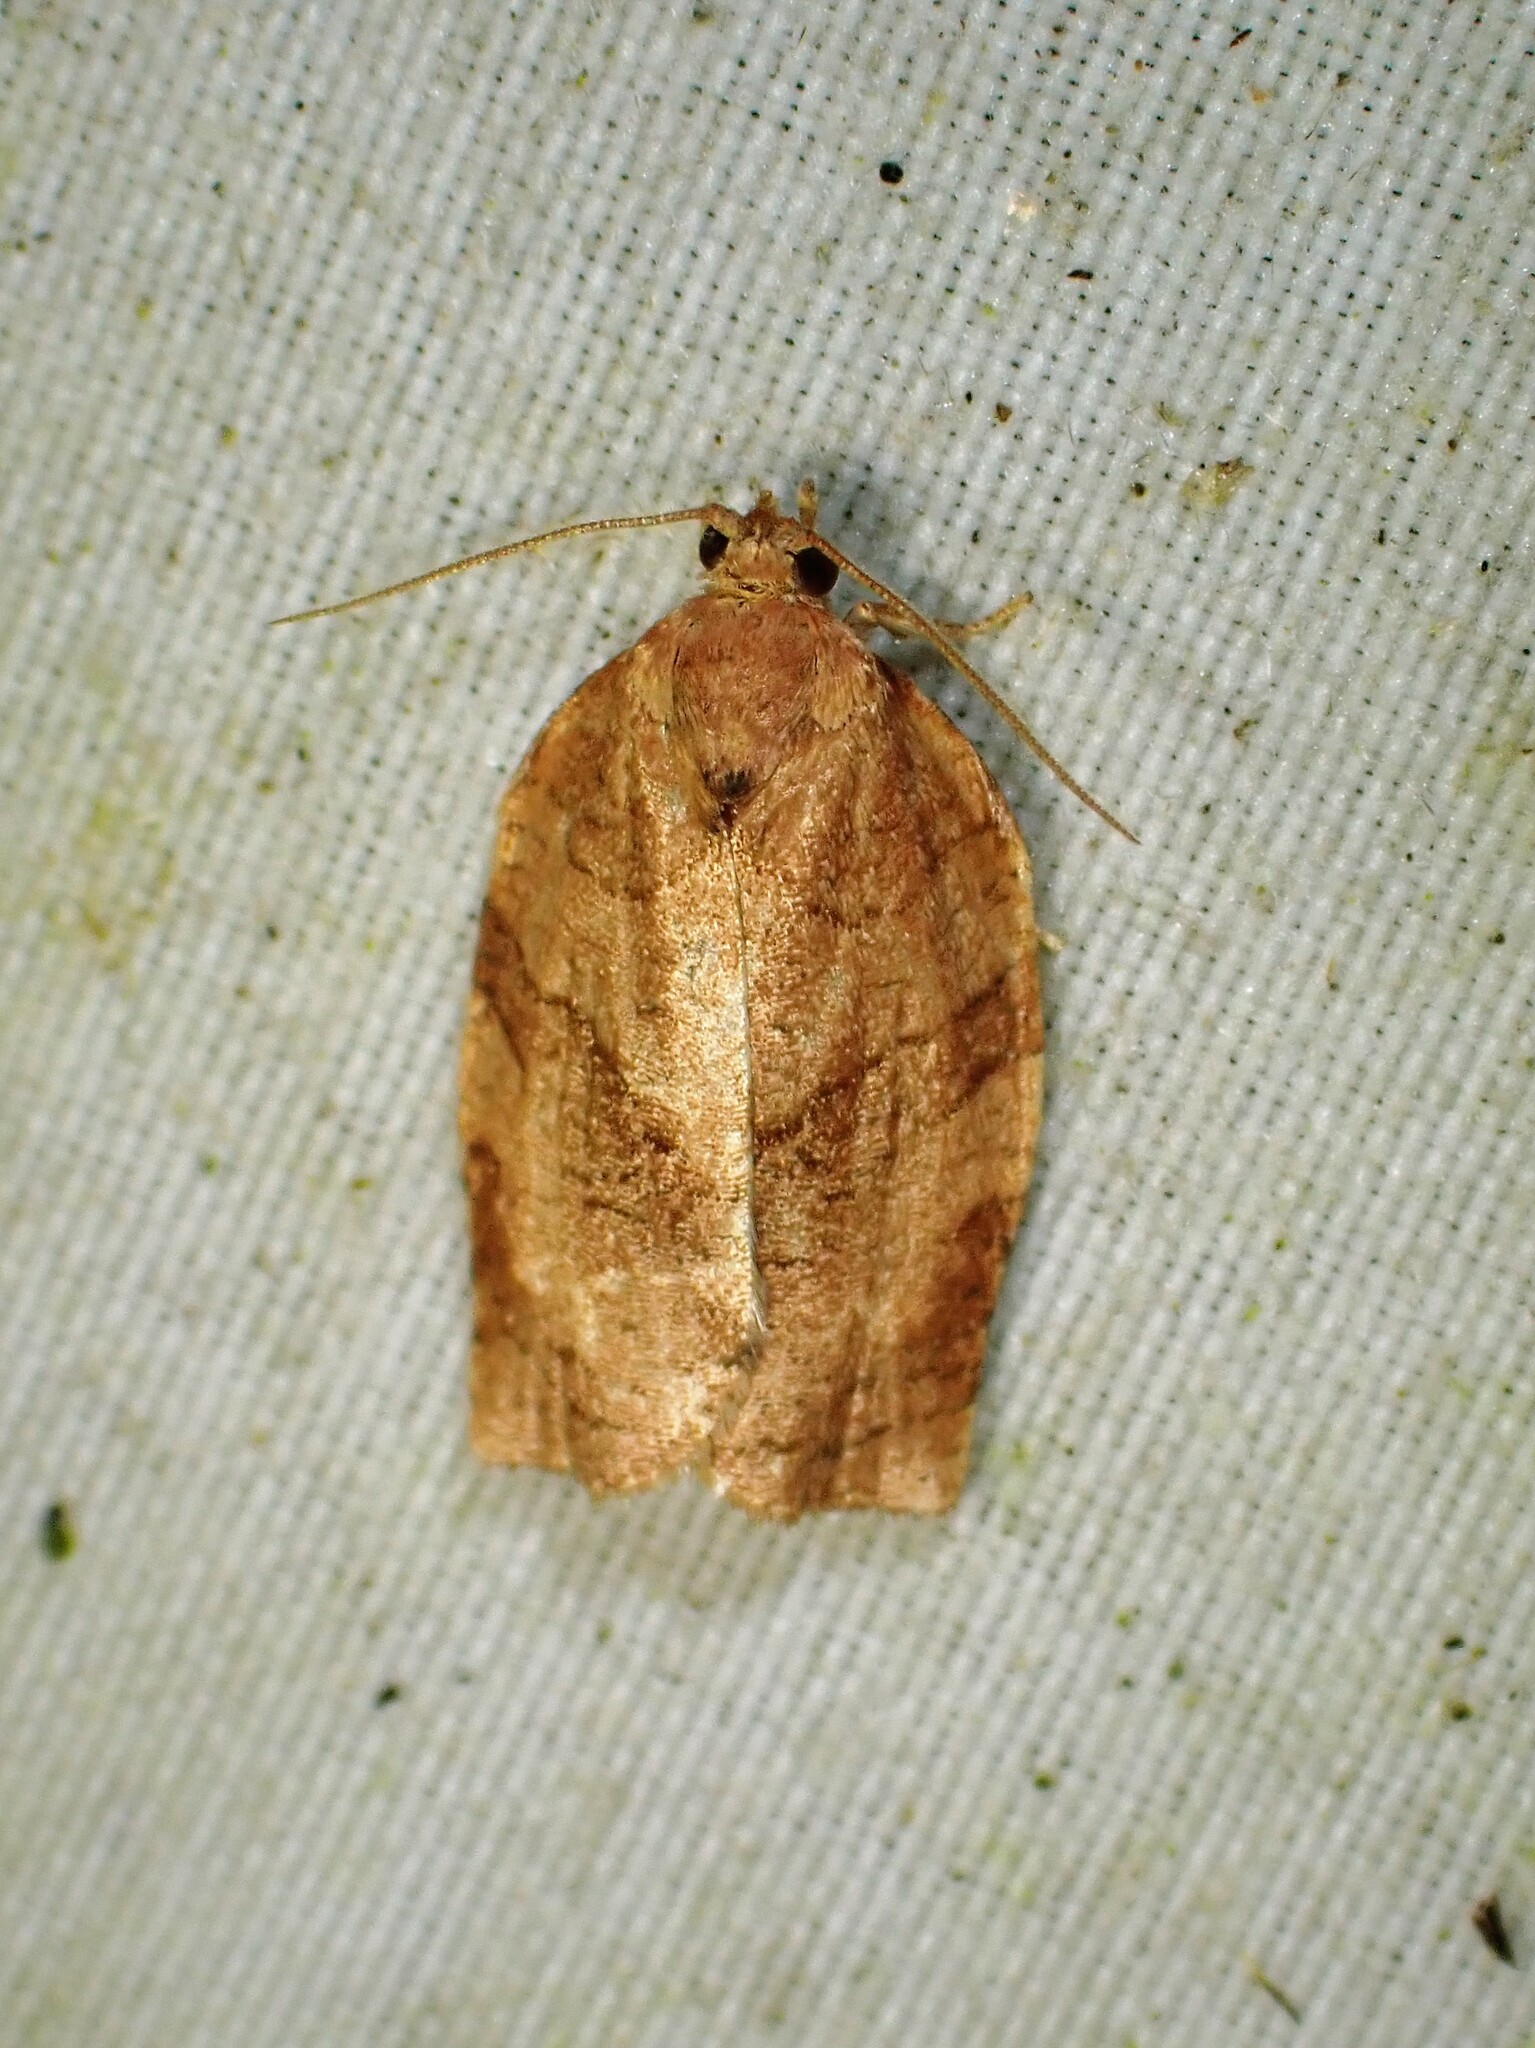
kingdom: Animalia
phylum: Arthropoda
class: Insecta
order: Lepidoptera
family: Tortricidae
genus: Choristoneura
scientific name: Choristoneura rosaceana
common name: Oblique-banded leafroller moth
